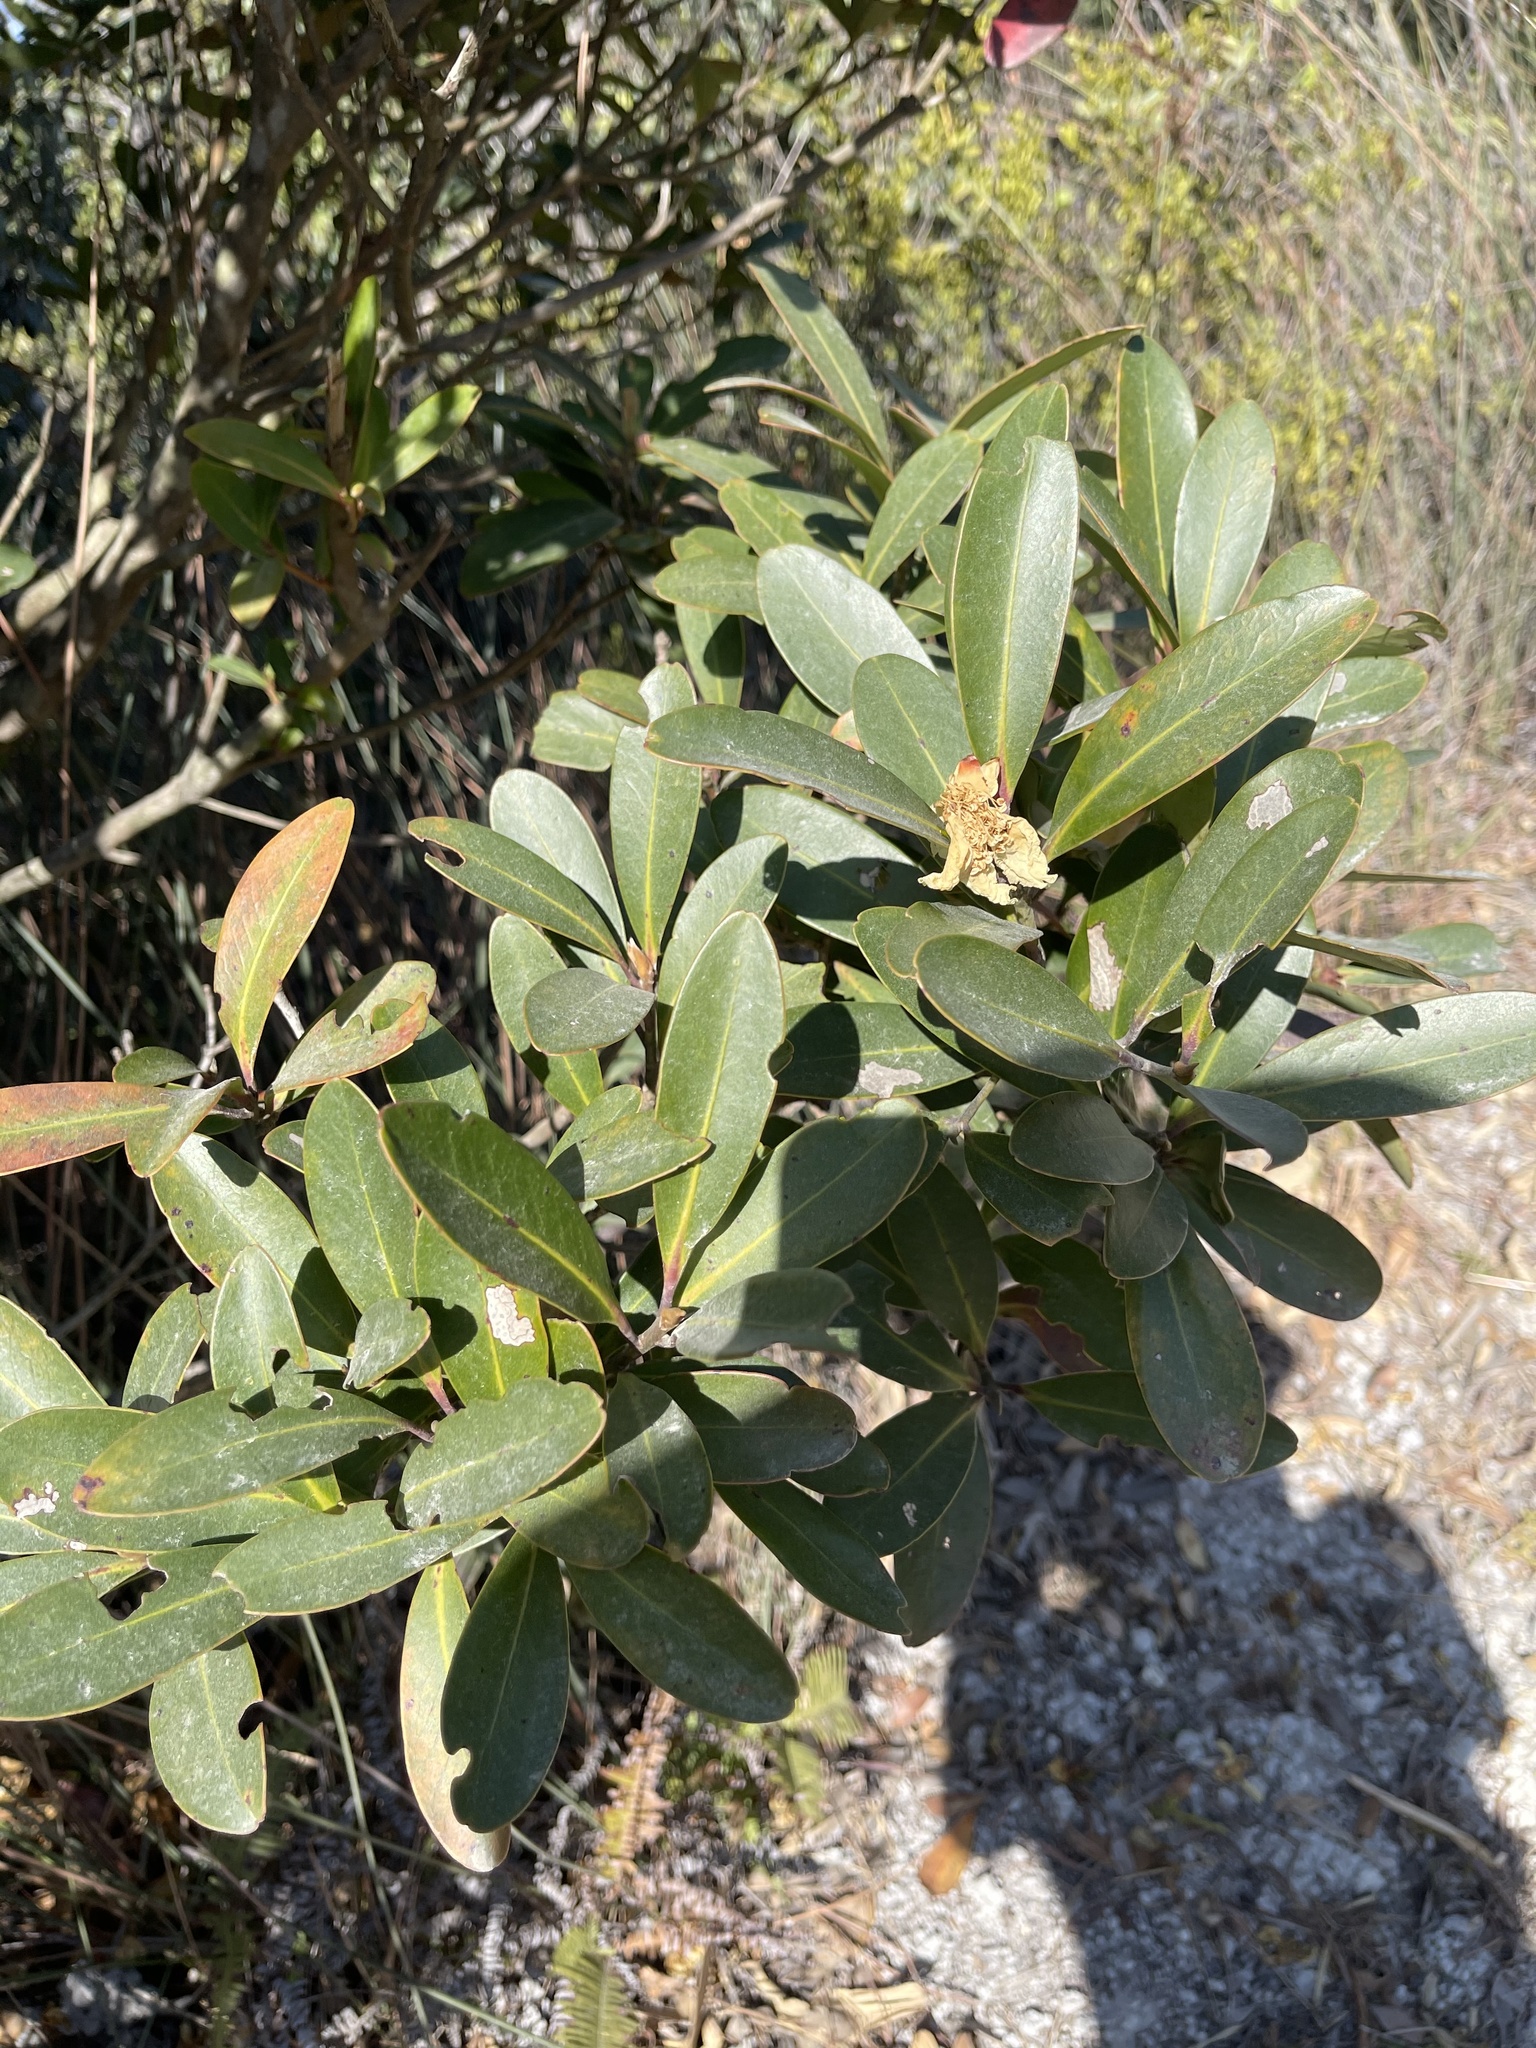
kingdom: Plantae
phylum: Tracheophyta
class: Magnoliopsida
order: Ericales
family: Theaceae
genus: Polyspora
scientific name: Polyspora axillaris
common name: Fried egg tree
